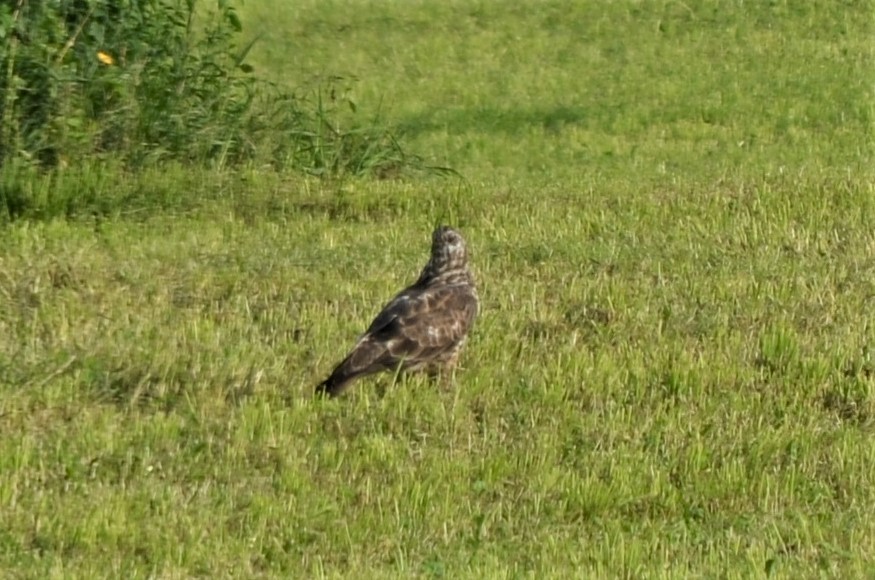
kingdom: Animalia
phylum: Chordata
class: Aves
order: Accipitriformes
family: Accipitridae
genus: Buteo
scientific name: Buteo buteo
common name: Common buzzard
